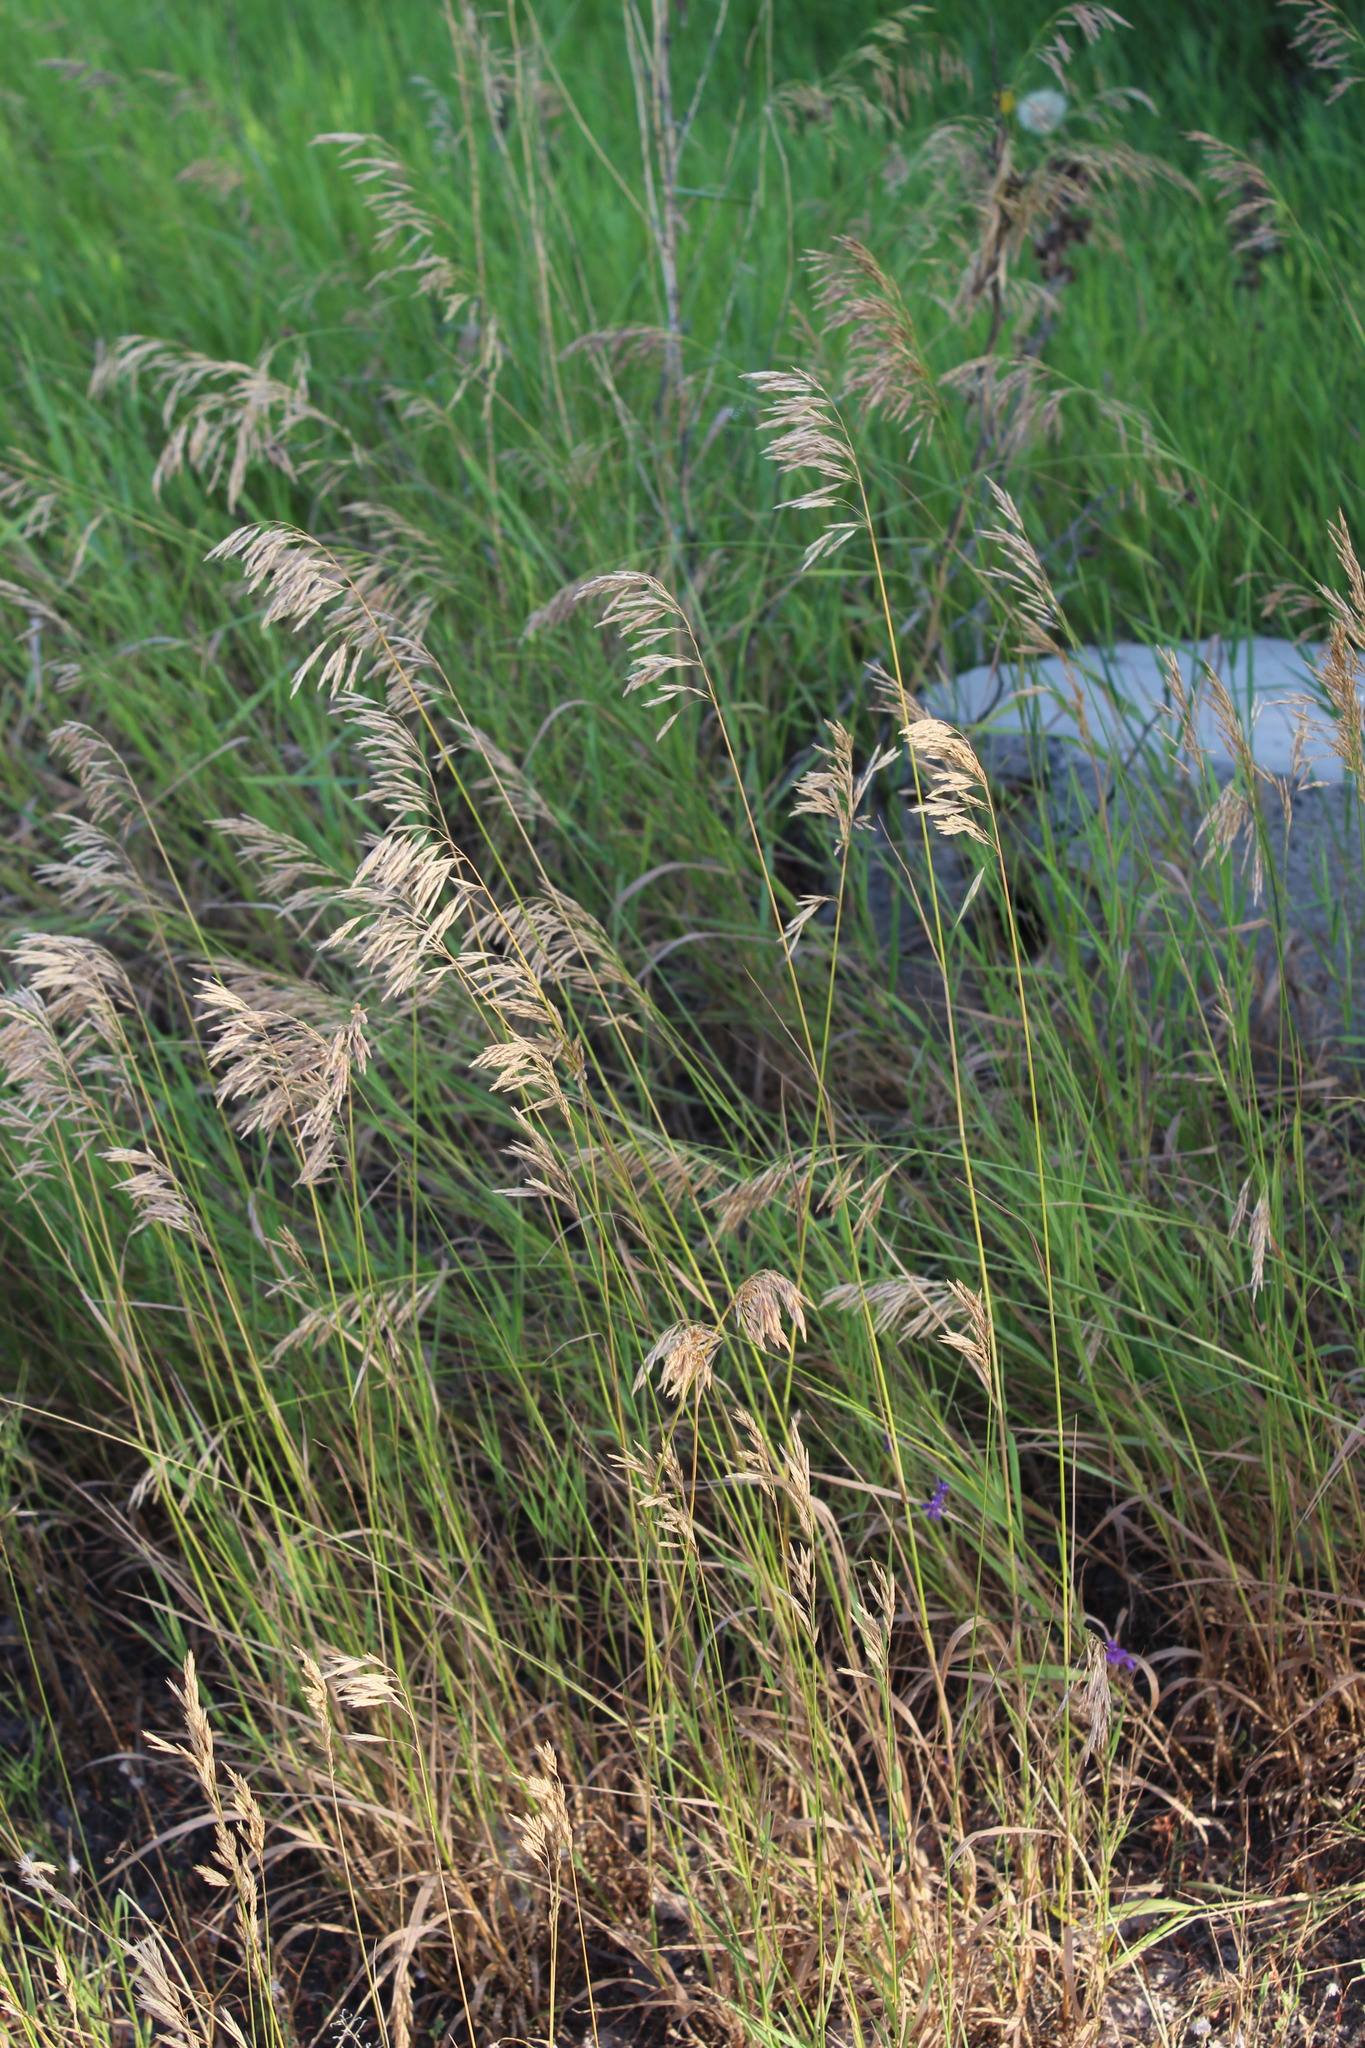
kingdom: Plantae
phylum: Tracheophyta
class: Liliopsida
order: Poales
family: Poaceae
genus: Bromus
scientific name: Bromus inermis
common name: Smooth brome
